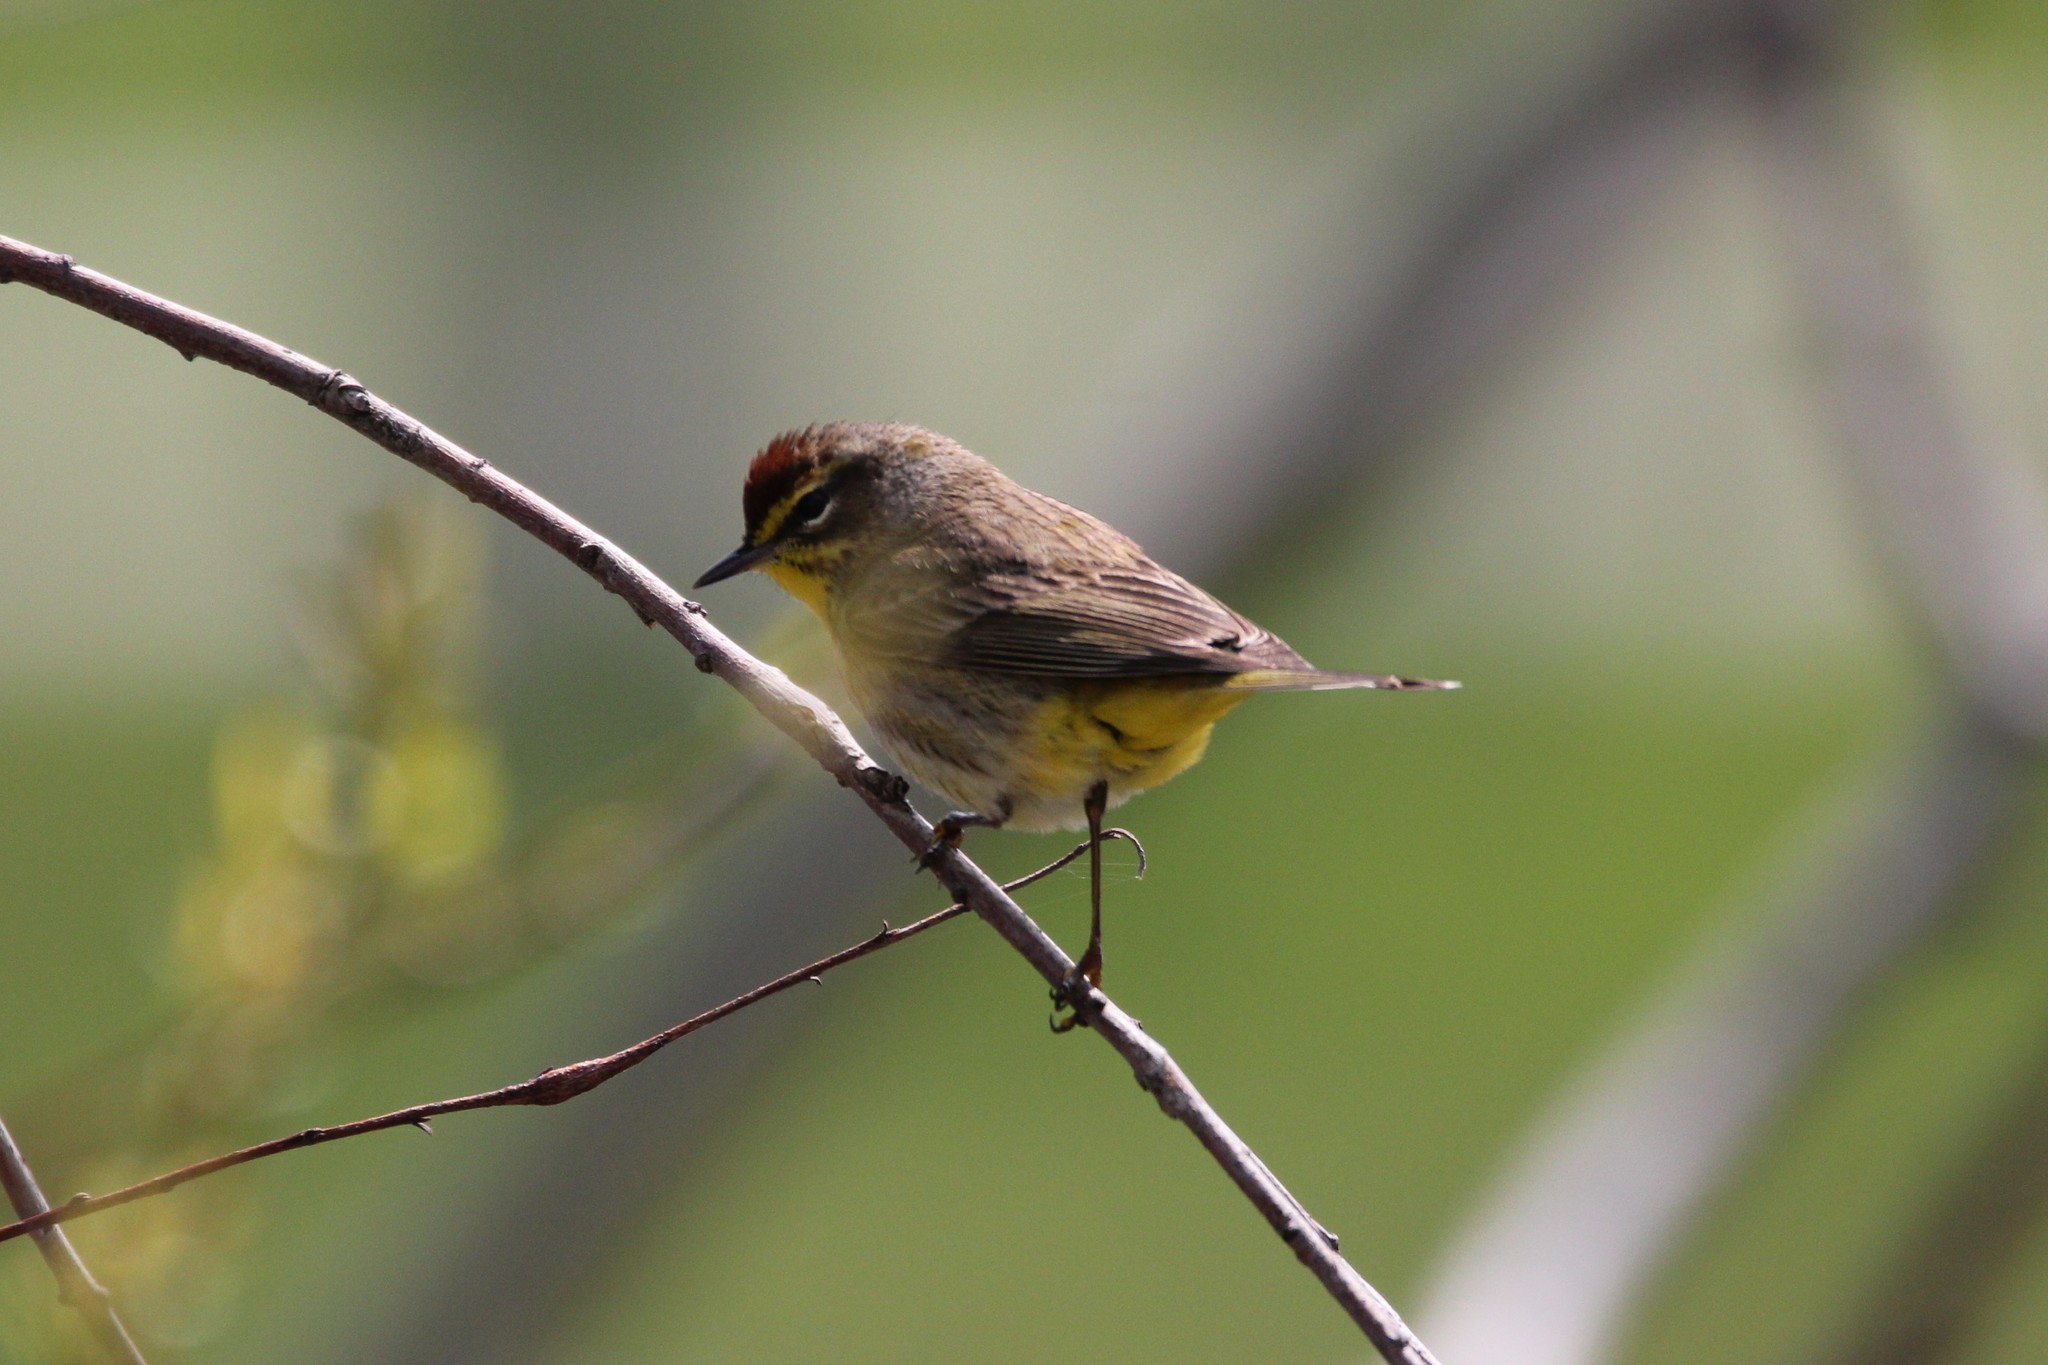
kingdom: Animalia
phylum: Chordata
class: Aves
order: Passeriformes
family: Parulidae
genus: Setophaga
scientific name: Setophaga palmarum
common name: Palm warbler
